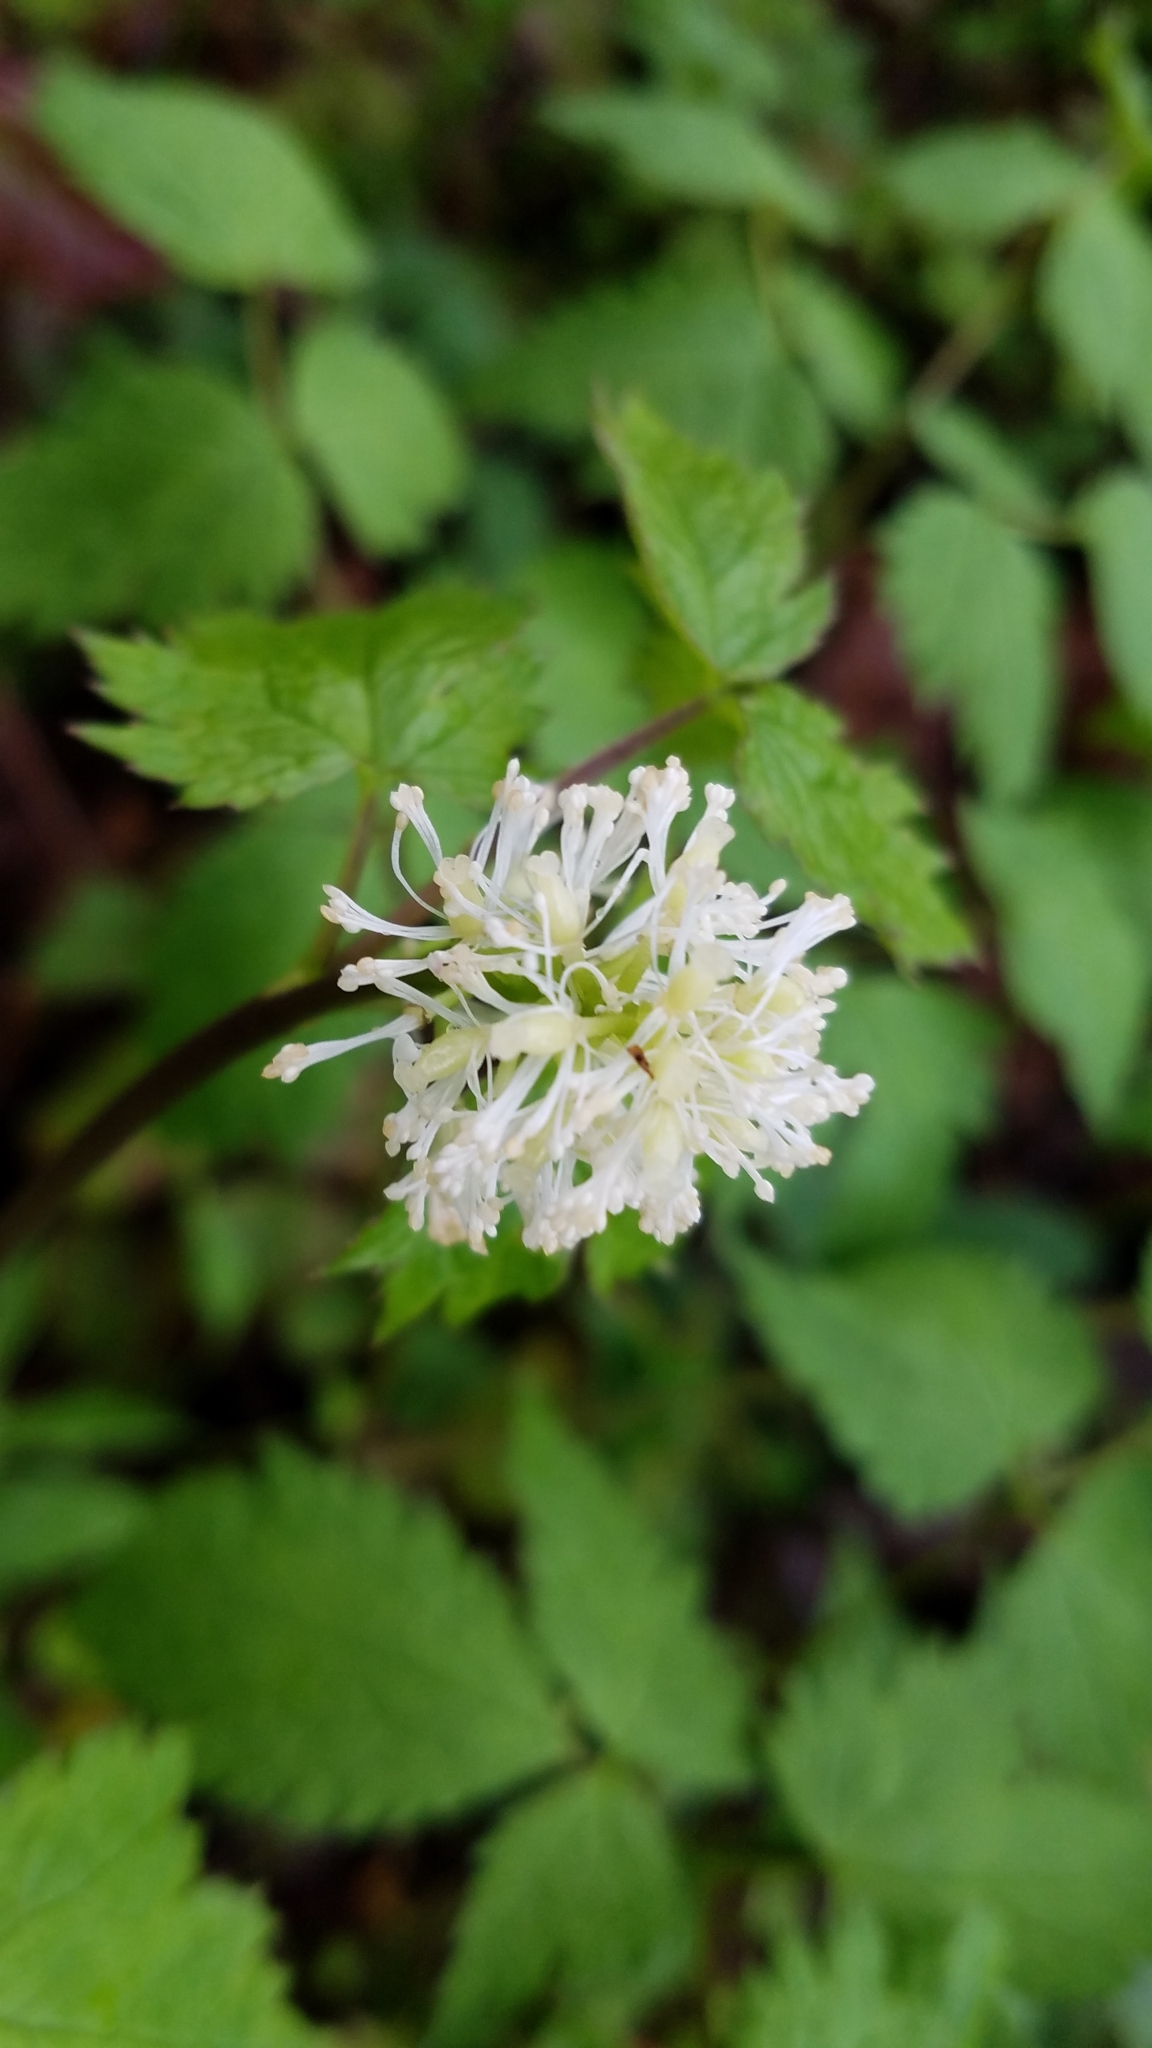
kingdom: Plantae
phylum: Tracheophyta
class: Magnoliopsida
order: Ranunculales
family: Ranunculaceae
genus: Actaea
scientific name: Actaea rubra
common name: Red baneberry
